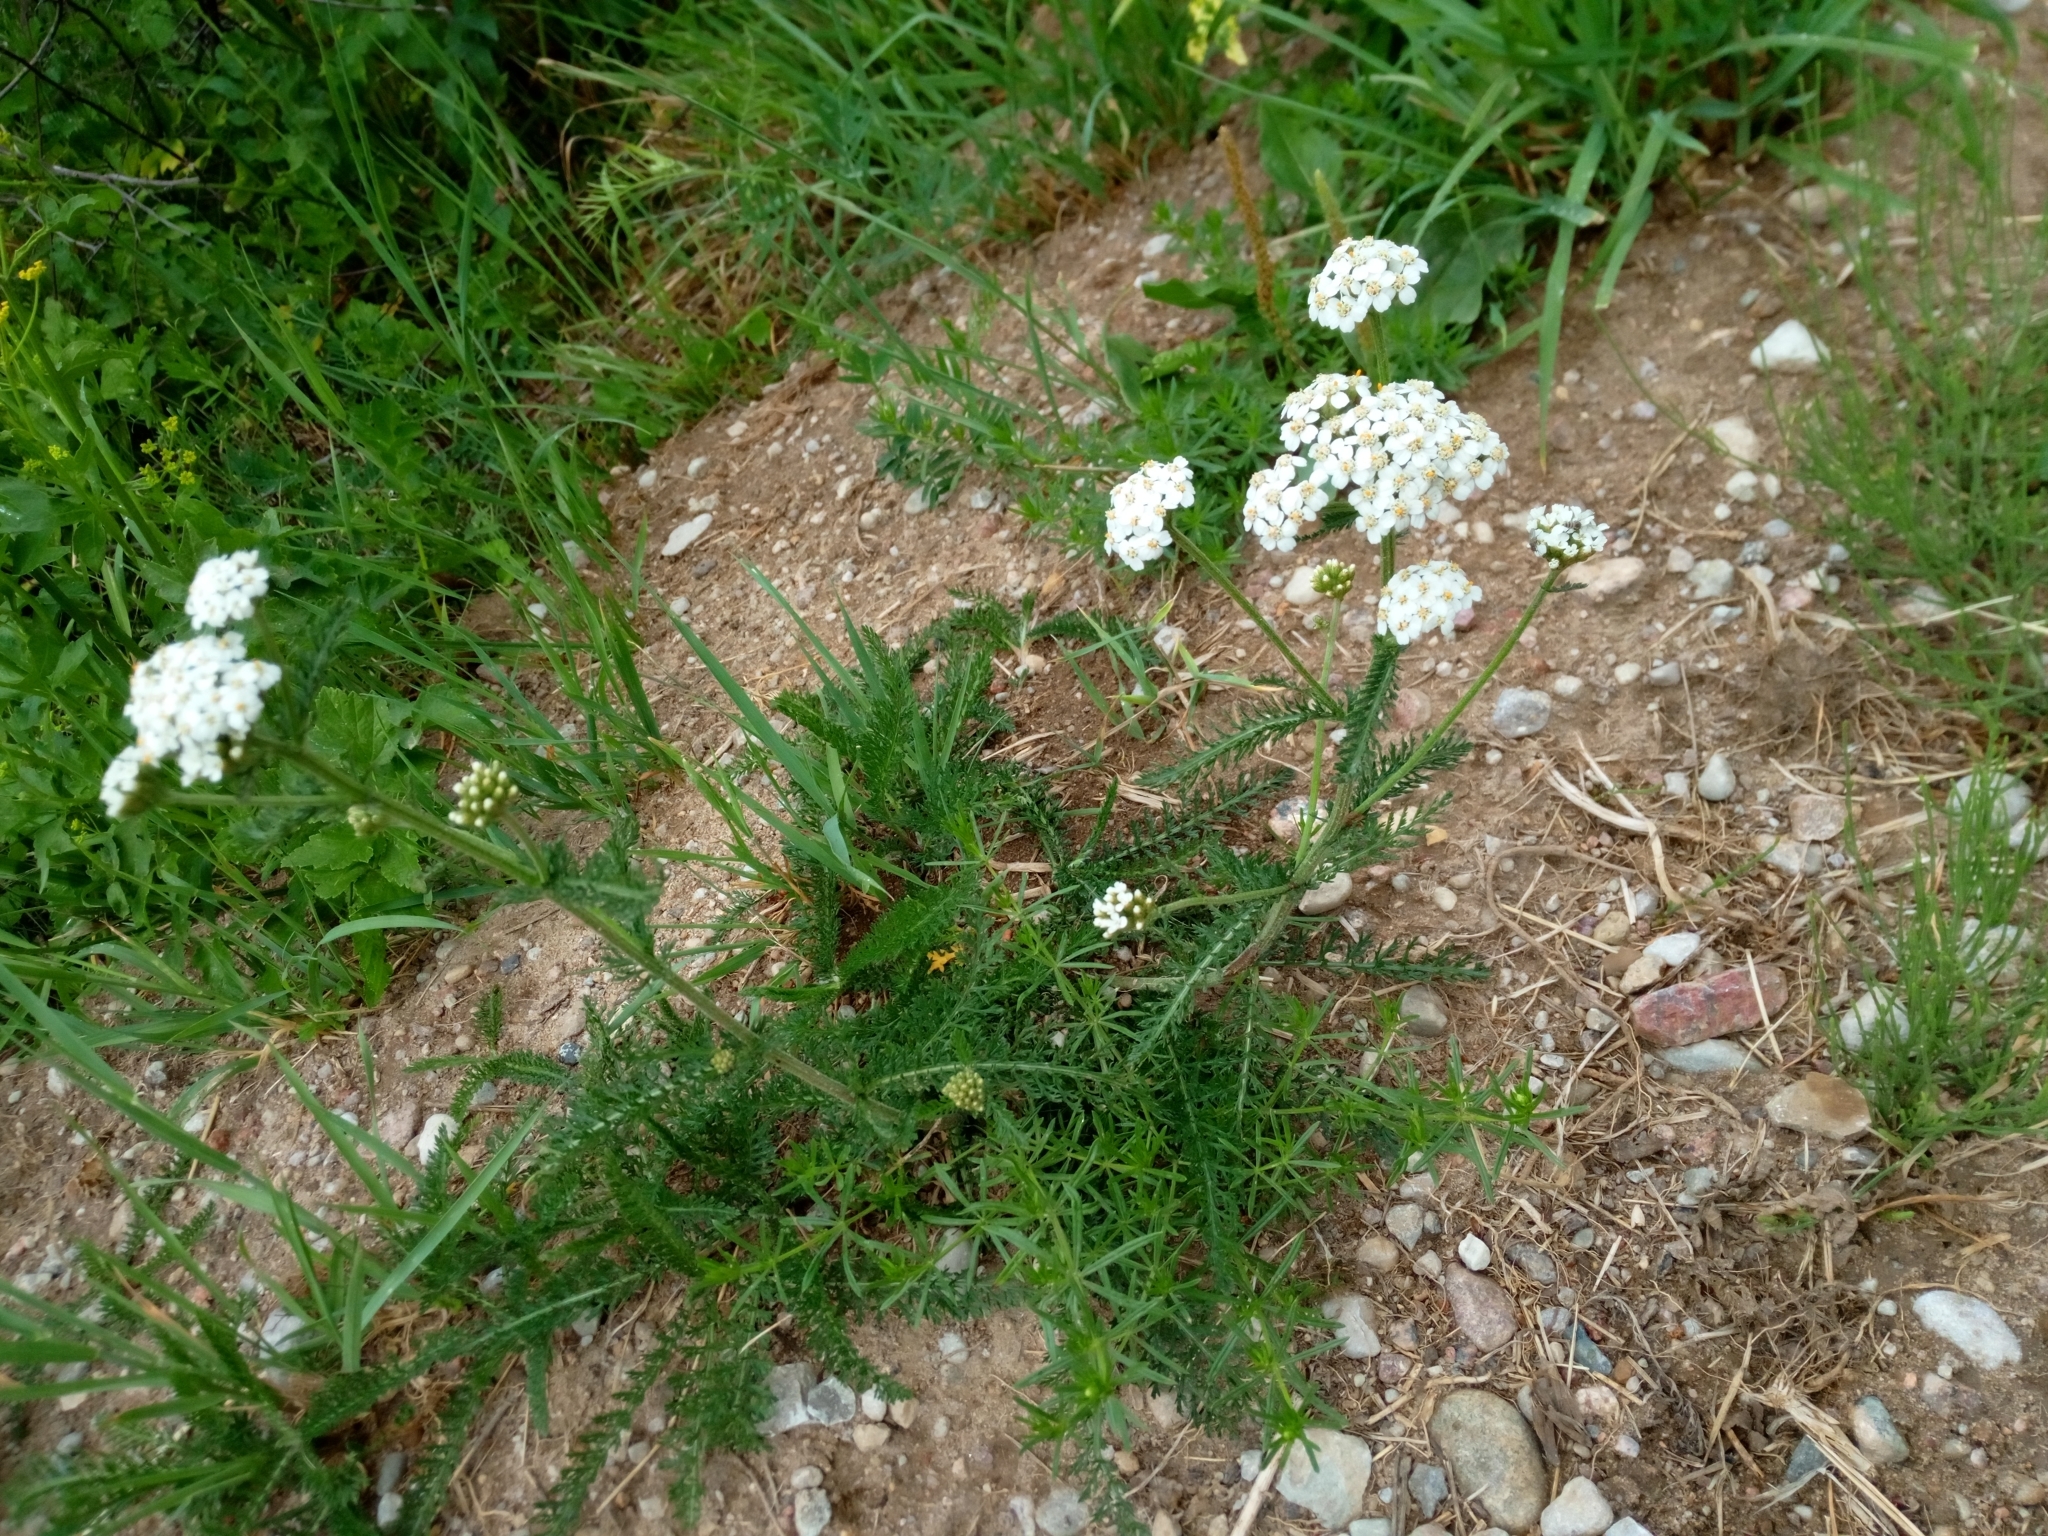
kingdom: Plantae
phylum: Tracheophyta
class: Magnoliopsida
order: Asterales
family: Asteraceae
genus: Achillea
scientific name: Achillea millefolium
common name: Yarrow
